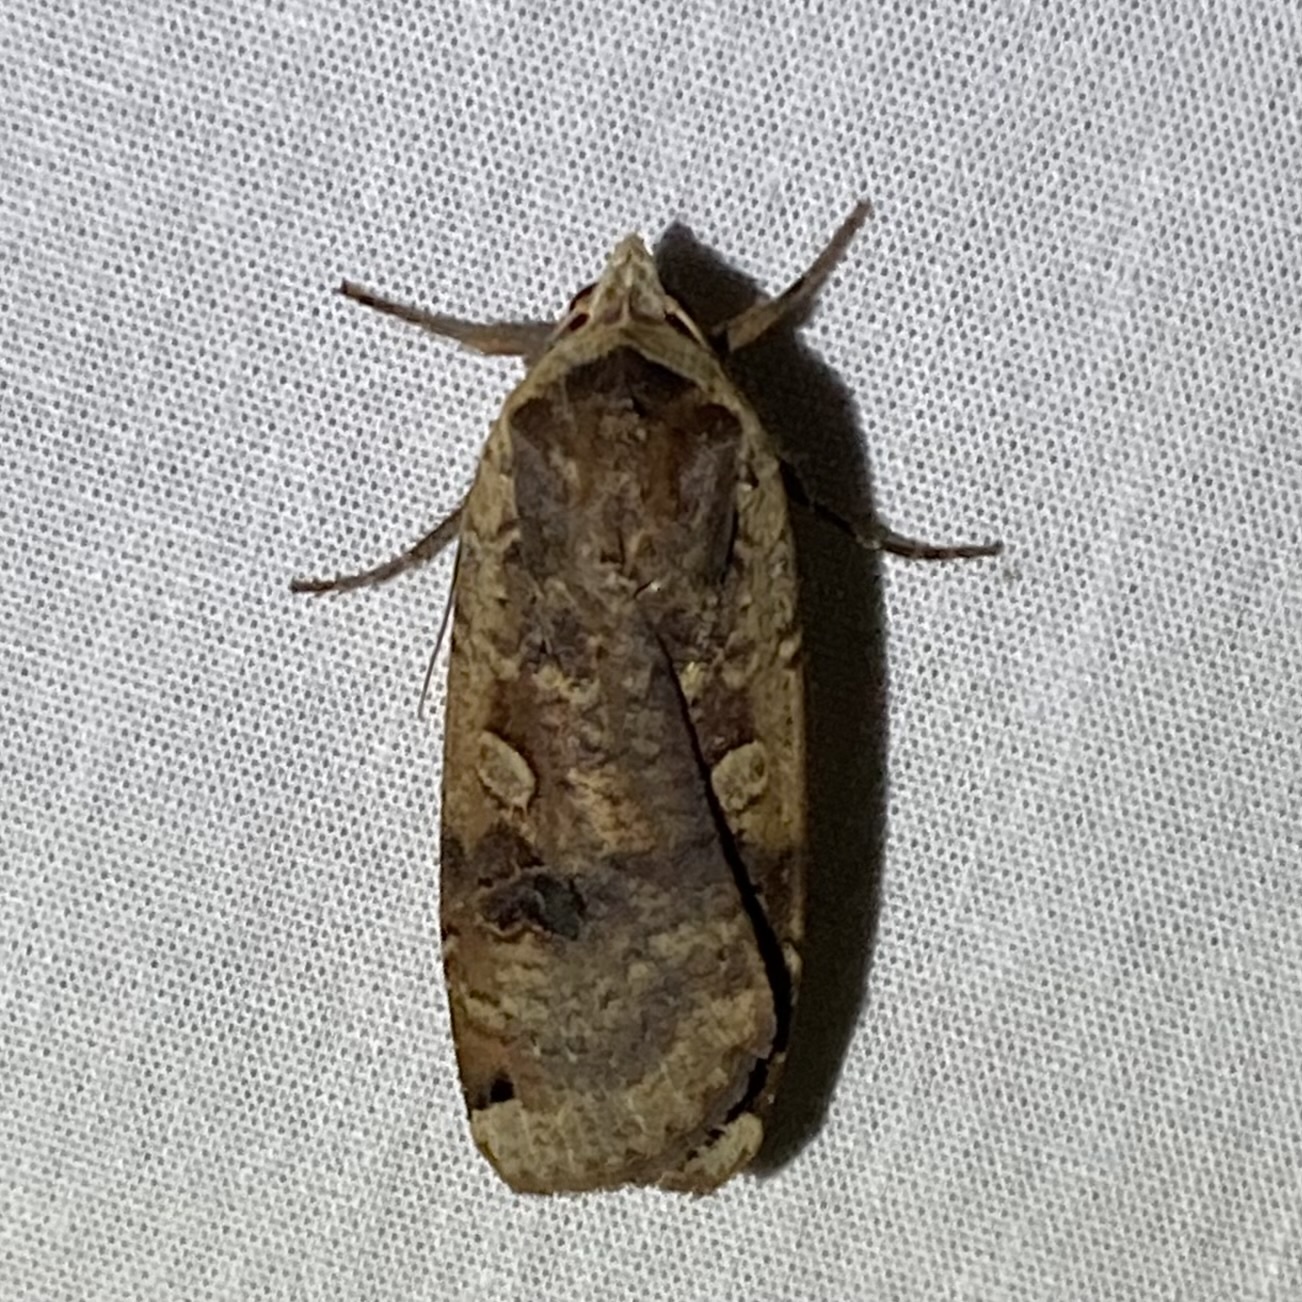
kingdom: Animalia
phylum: Arthropoda
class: Insecta
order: Lepidoptera
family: Noctuidae
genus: Noctua
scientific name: Noctua pronuba
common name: Large yellow underwing
